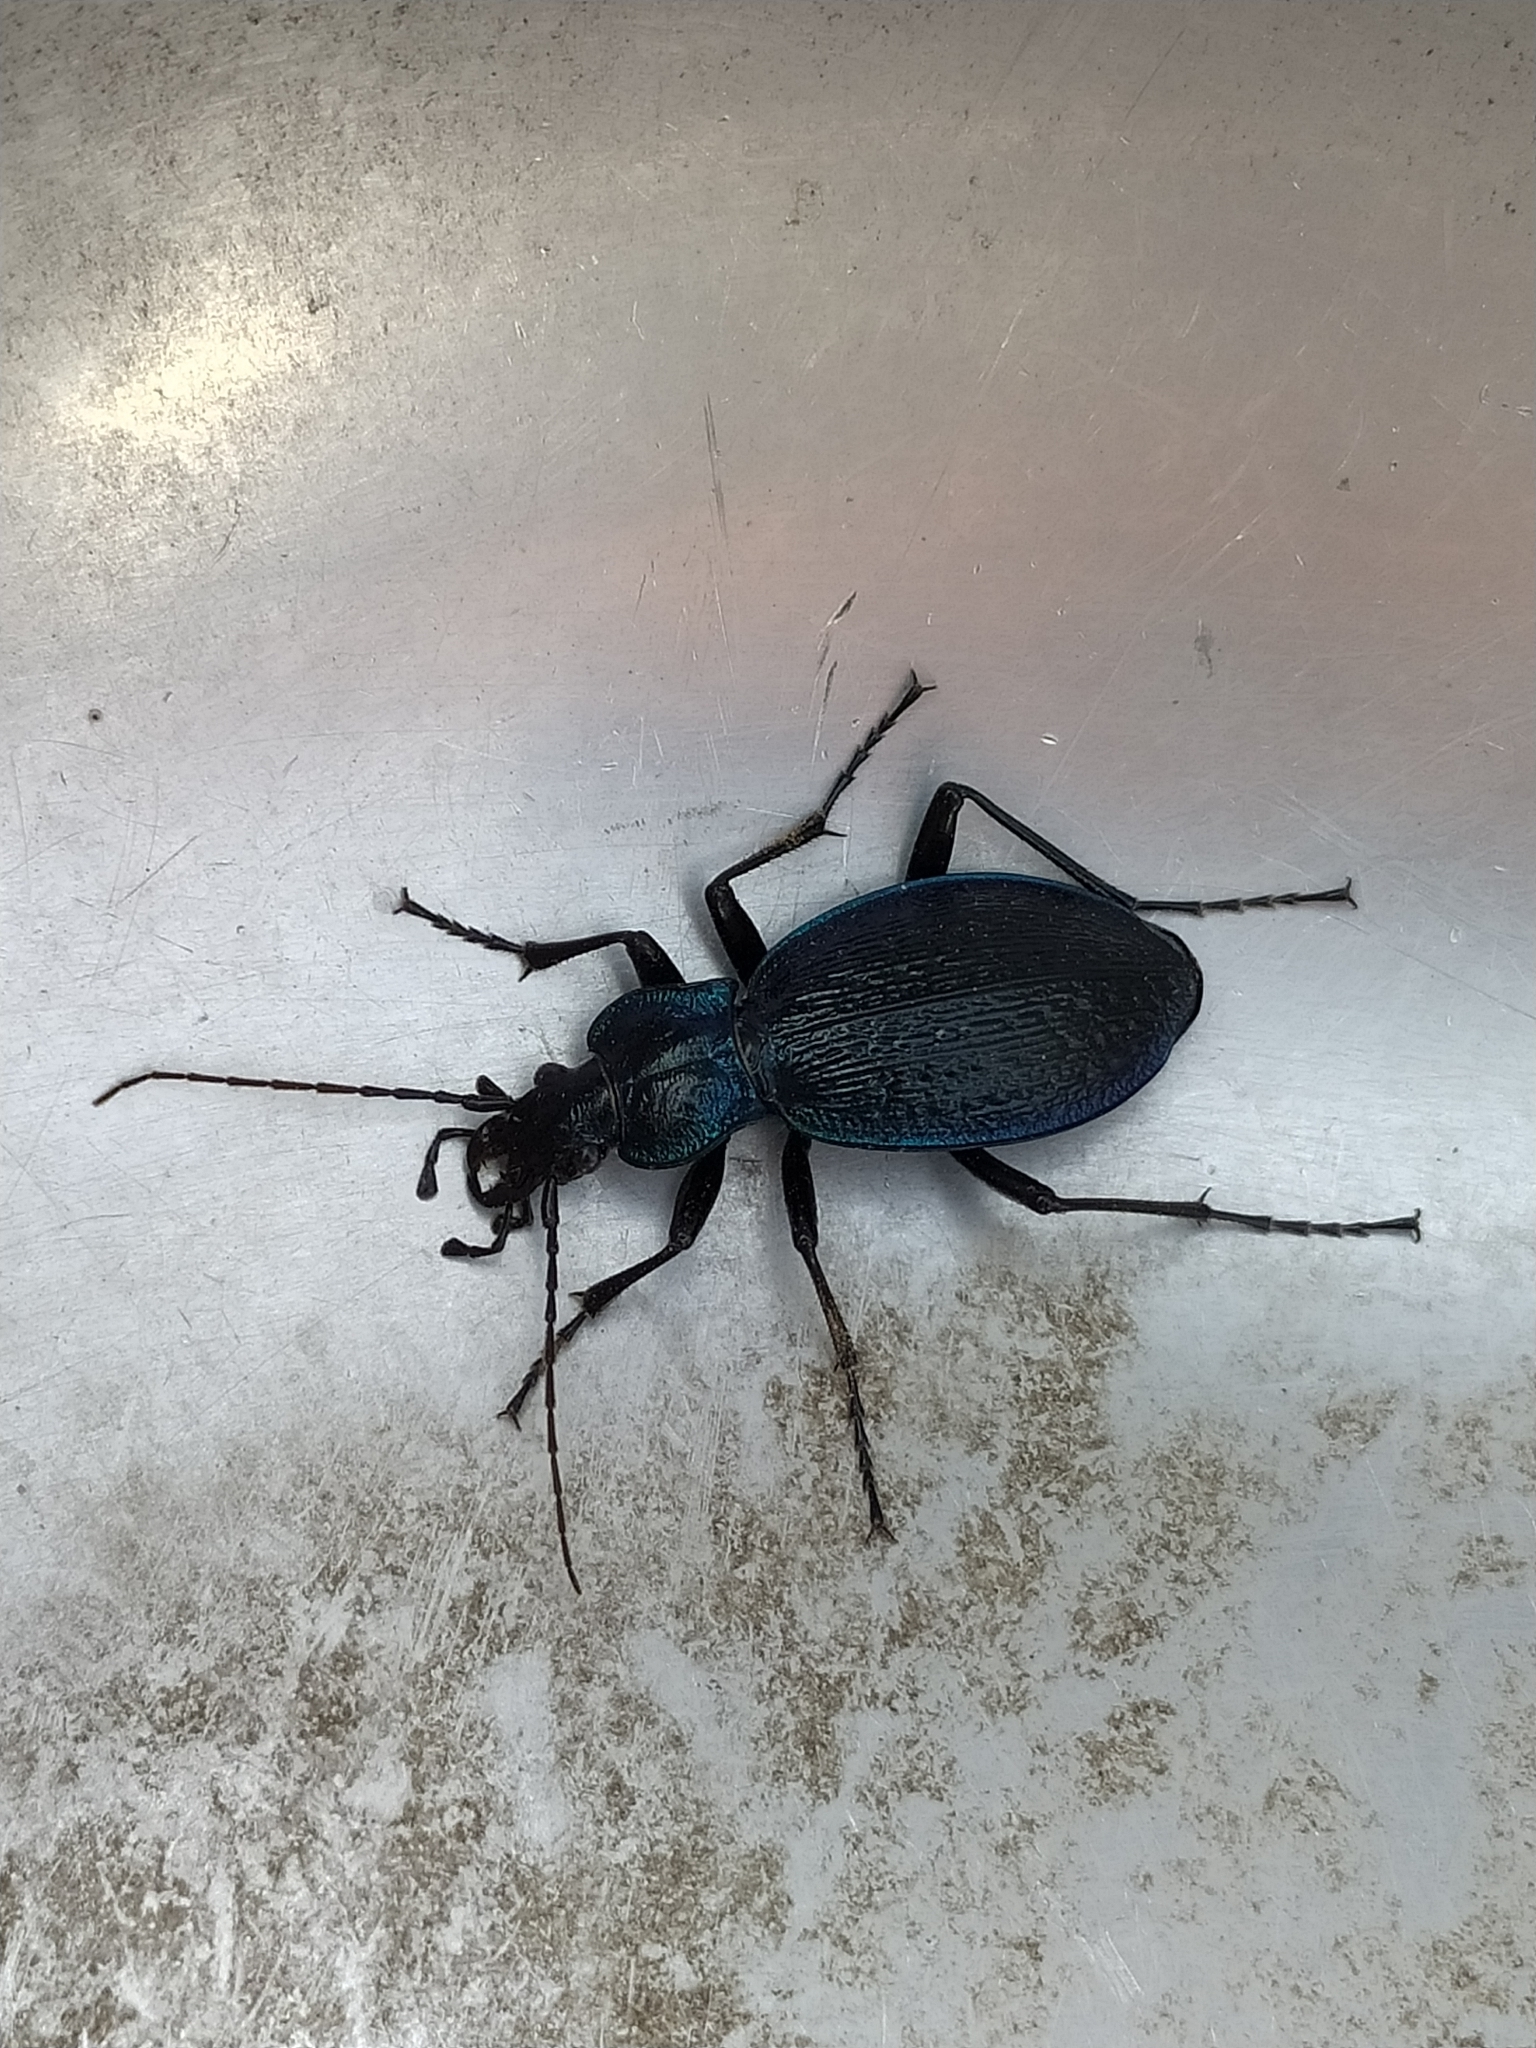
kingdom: Animalia
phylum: Arthropoda
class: Insecta
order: Coleoptera
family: Carabidae
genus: Carabus
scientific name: Carabus lefebvrei
